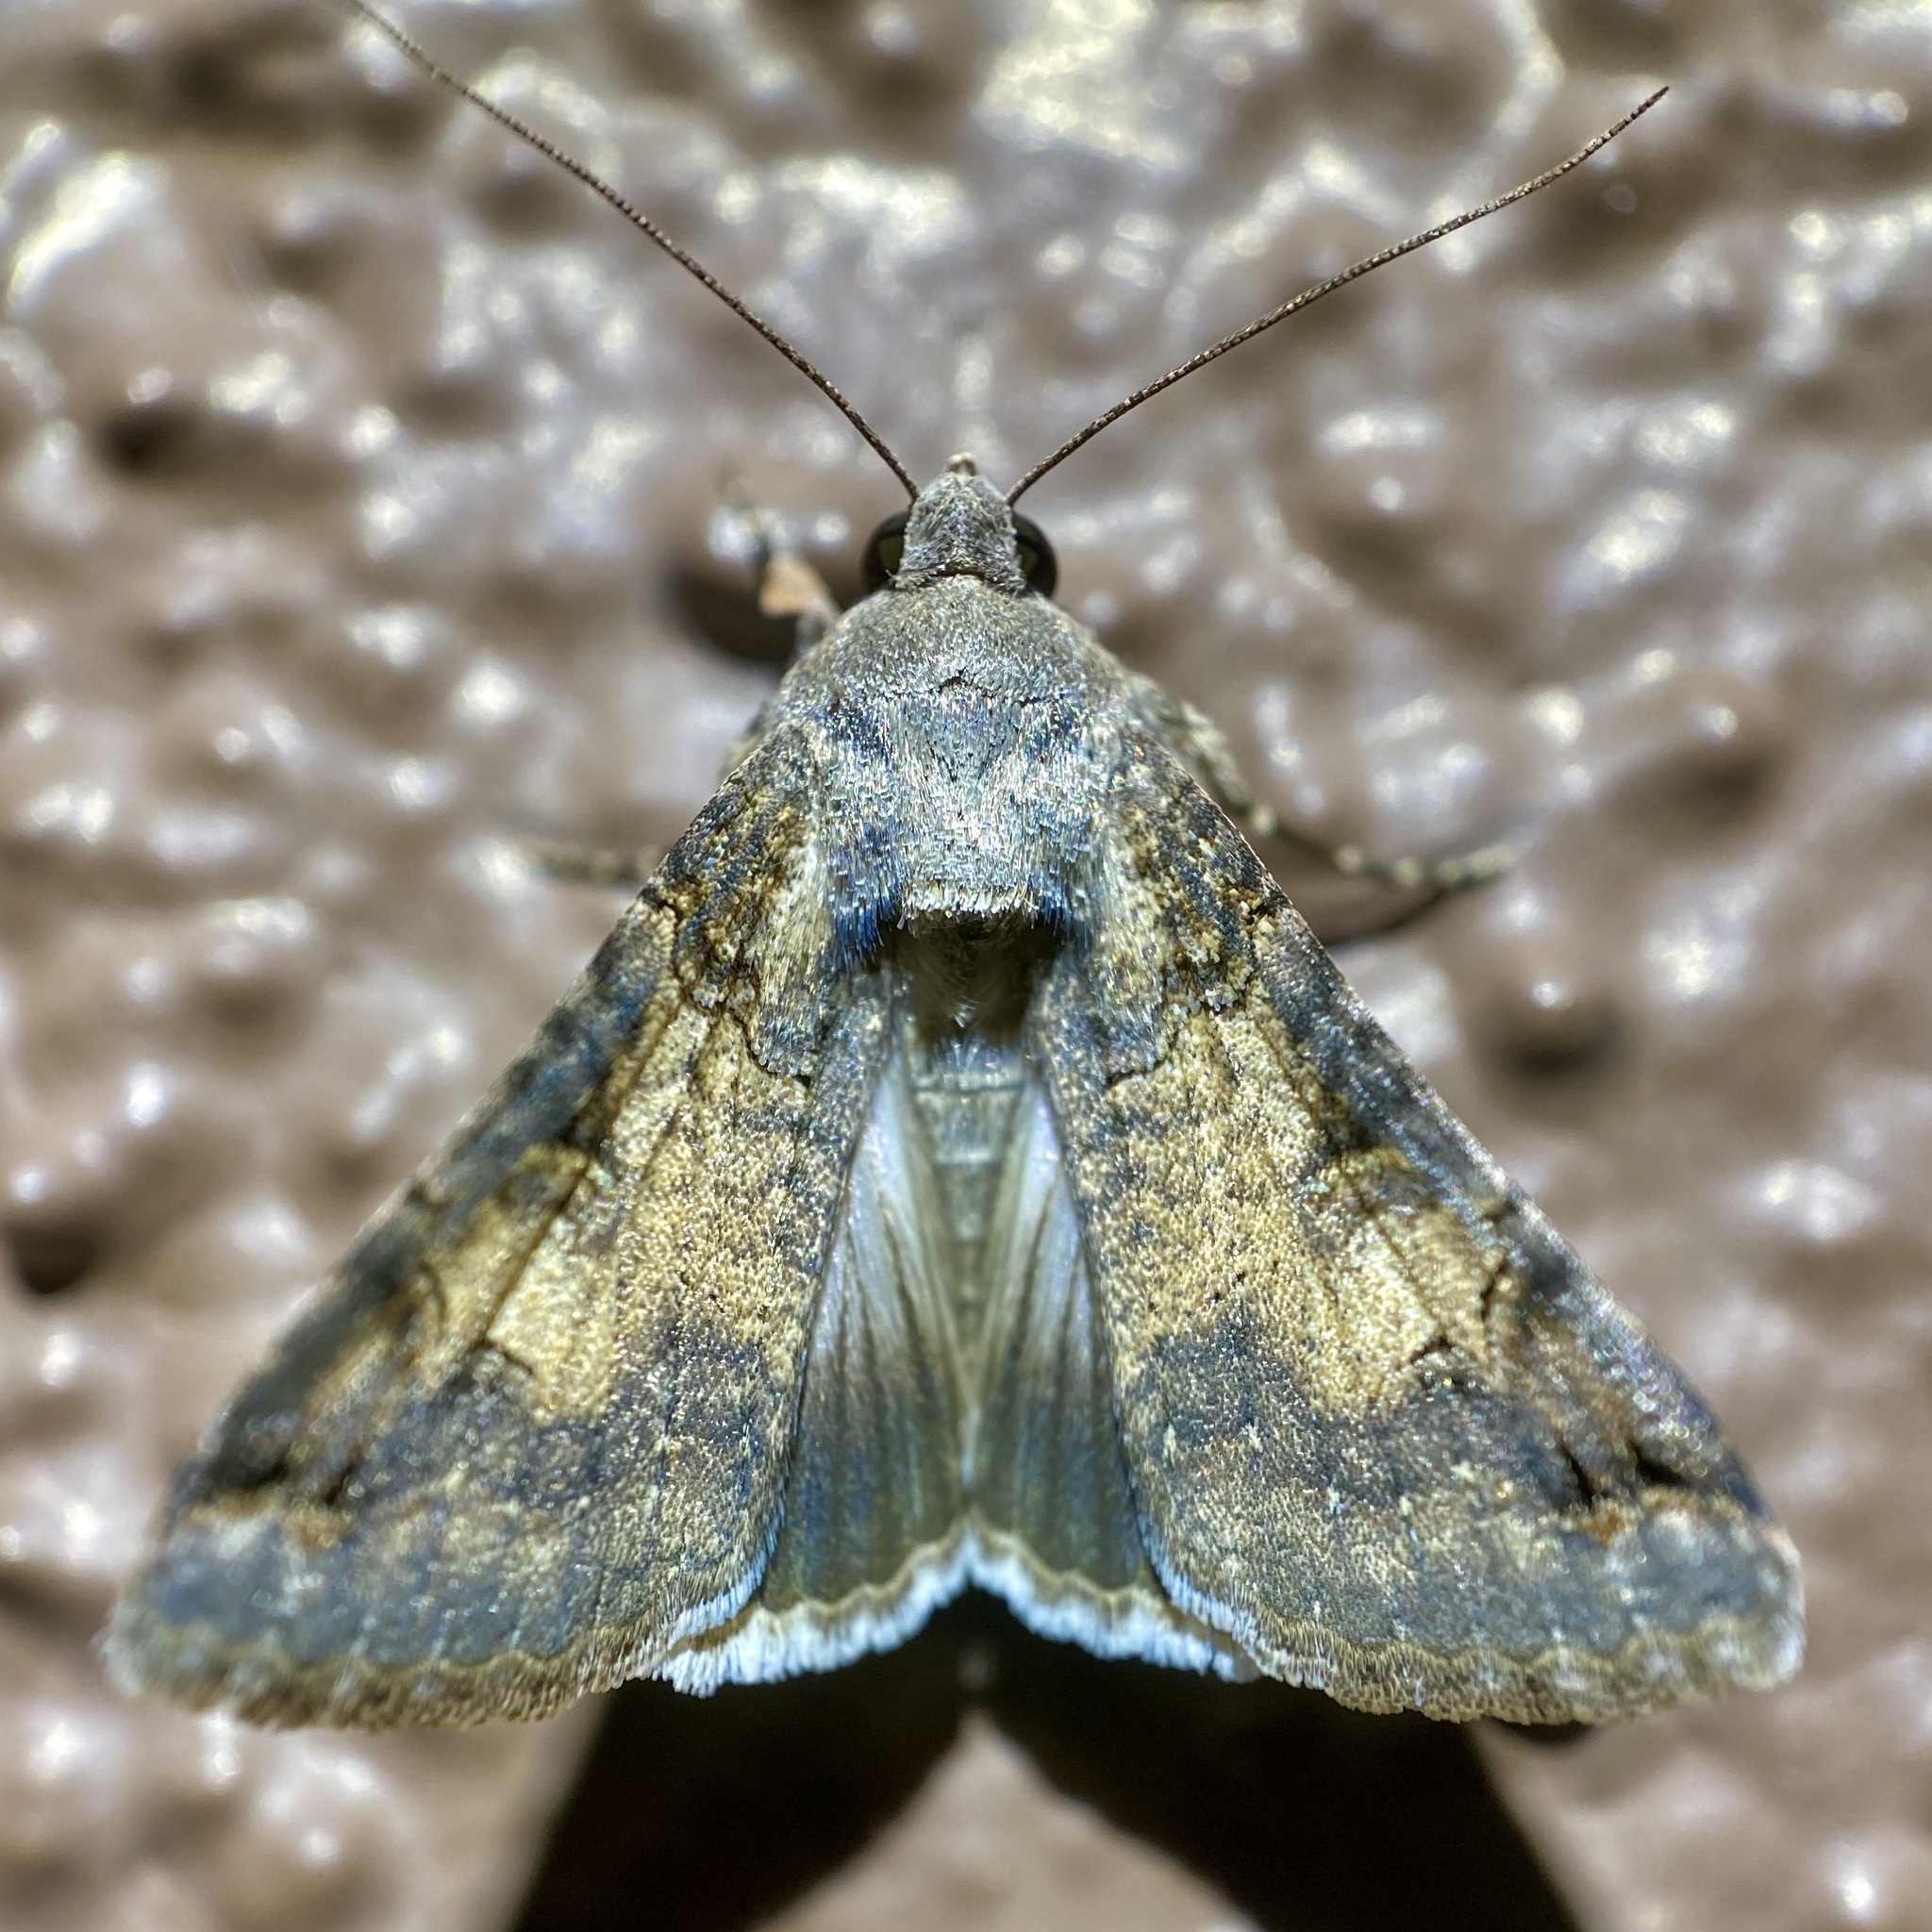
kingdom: Animalia
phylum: Arthropoda
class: Insecta
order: Lepidoptera
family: Erebidae
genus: Melipotis
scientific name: Melipotis novanda
